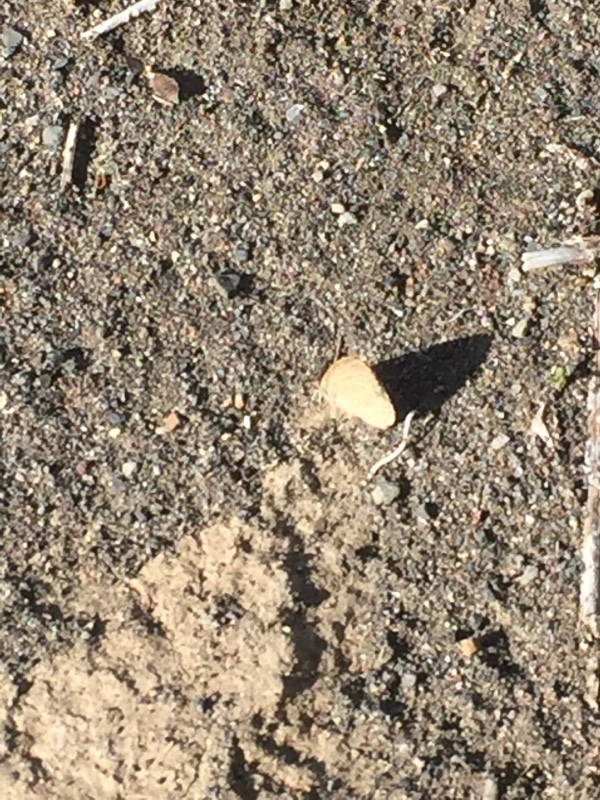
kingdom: Animalia
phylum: Arthropoda
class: Insecta
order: Lepidoptera
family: Lycaenidae
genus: Zizeeria
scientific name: Zizeeria knysna
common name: African grass blue
